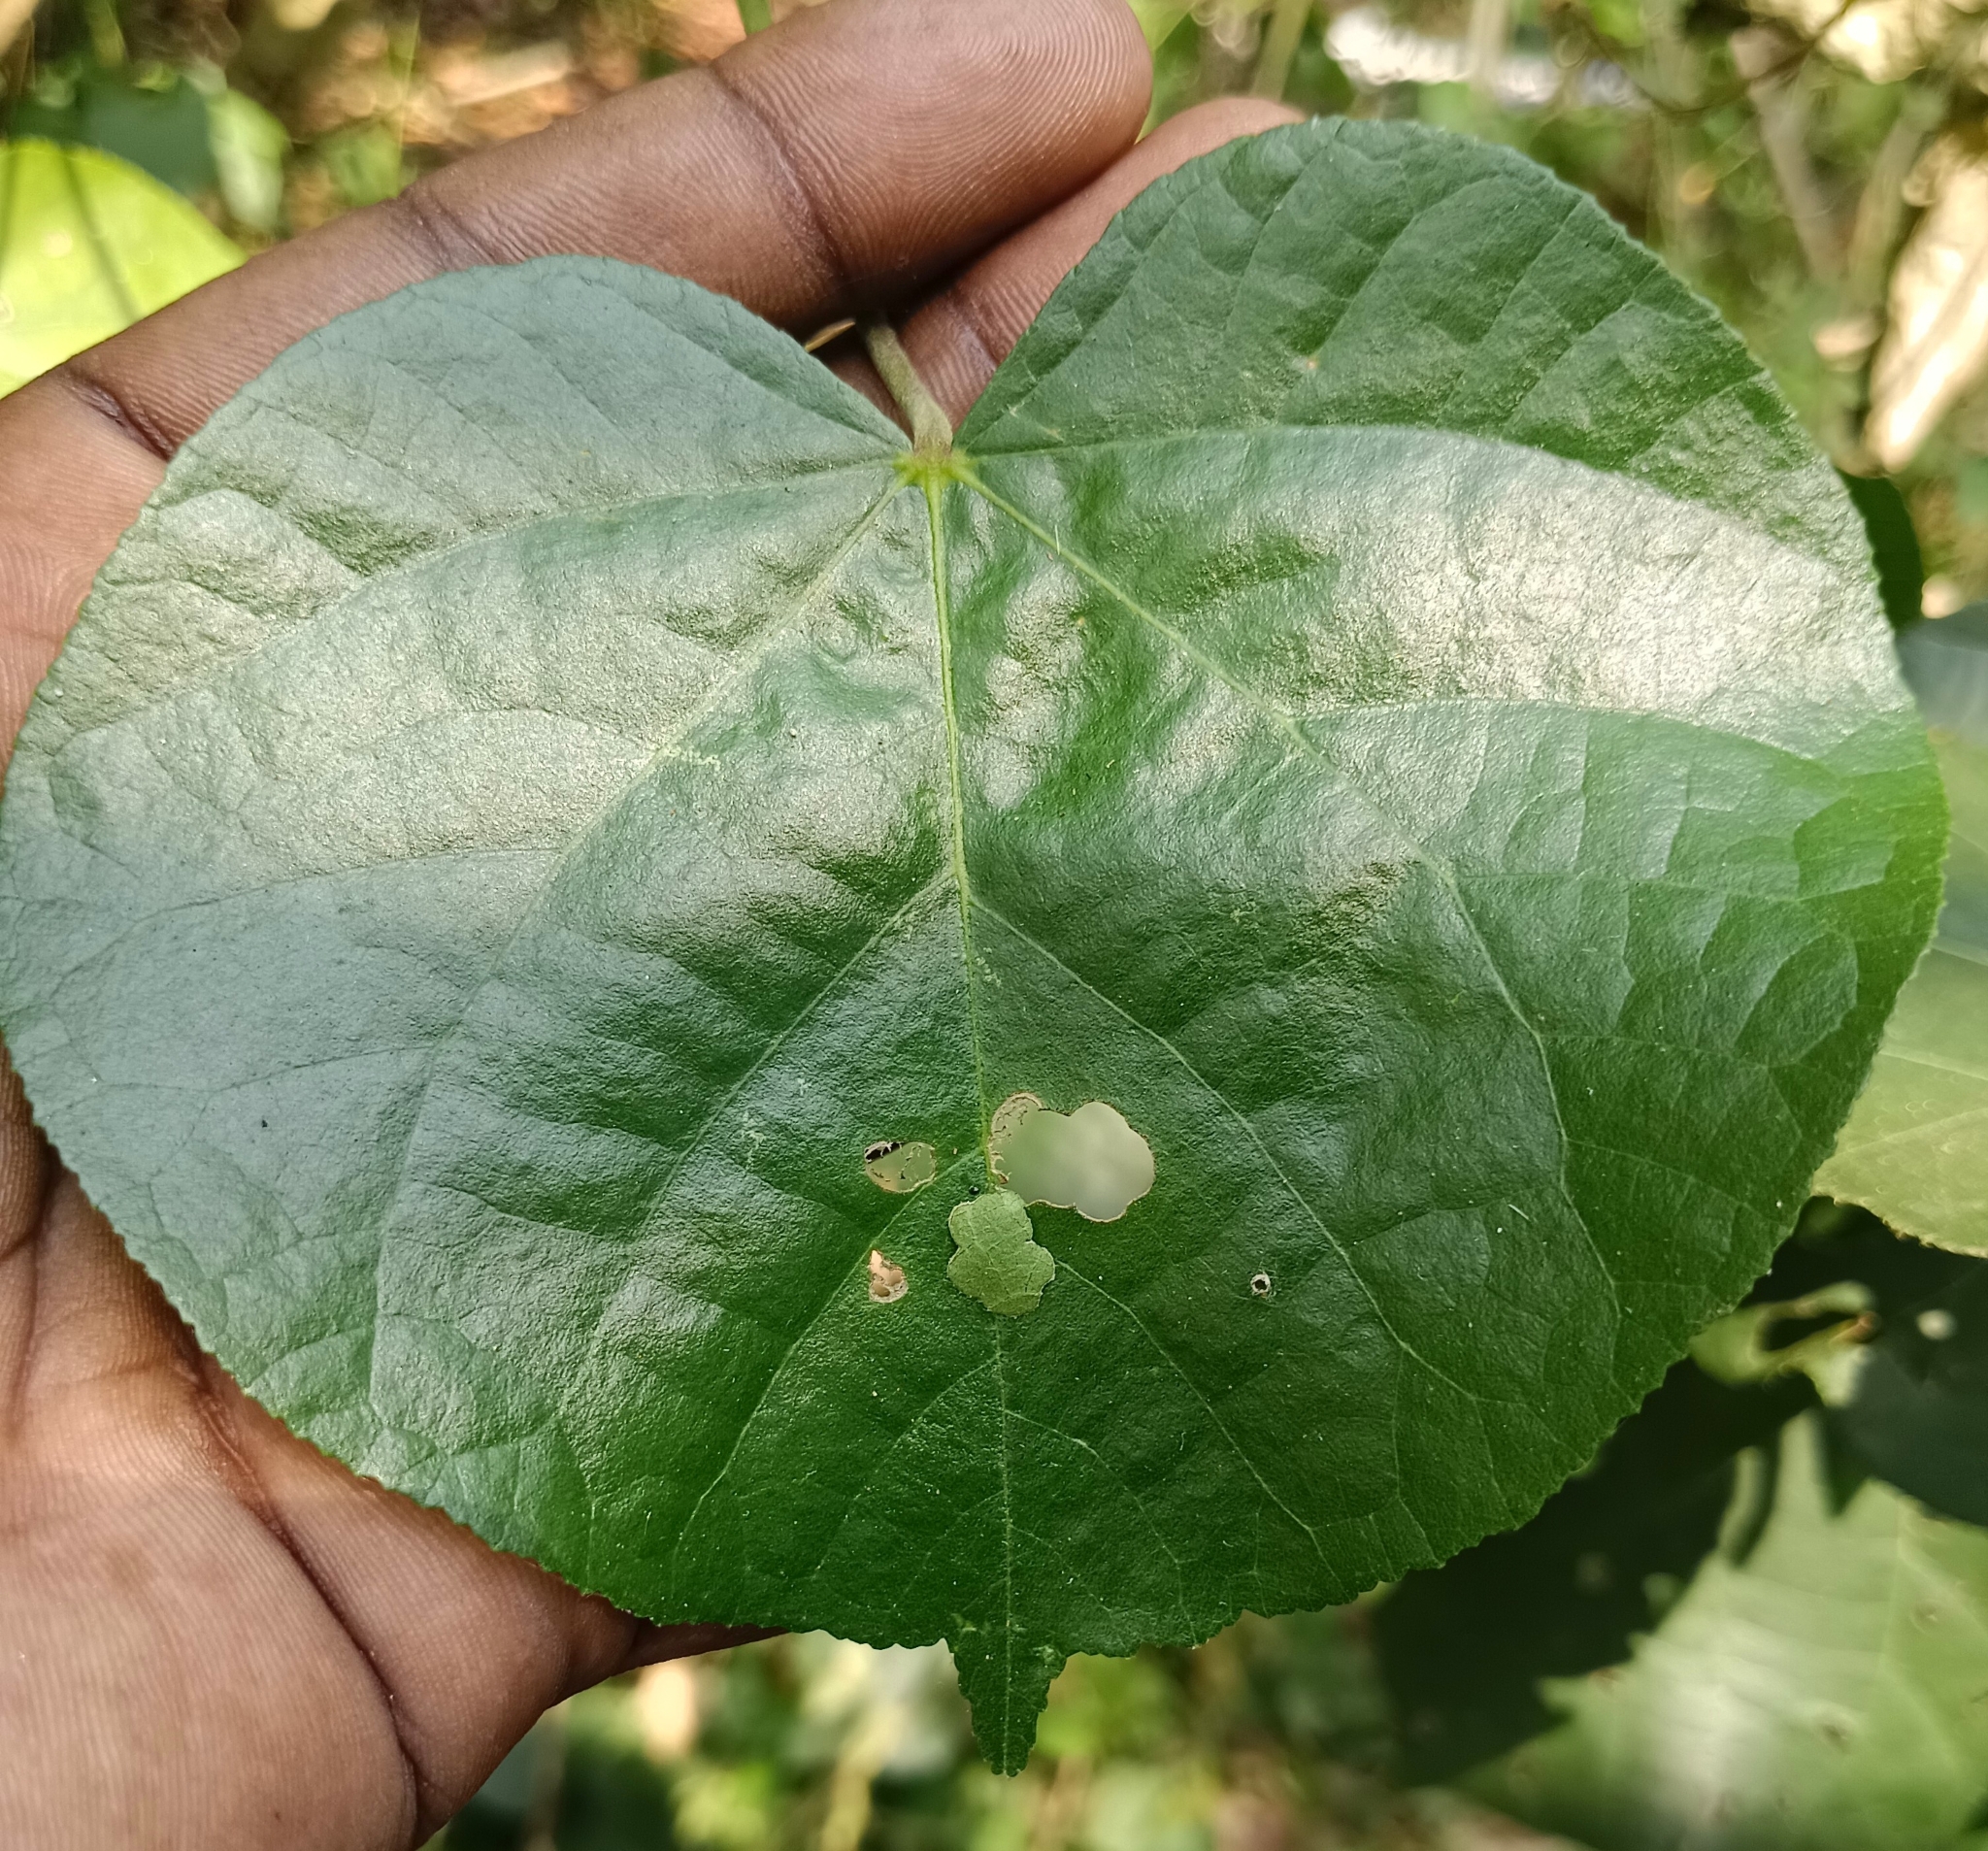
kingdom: Animalia
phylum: Arthropoda
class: Insecta
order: Lepidoptera
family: Hesperiidae
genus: Coladenia
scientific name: Coladenia
